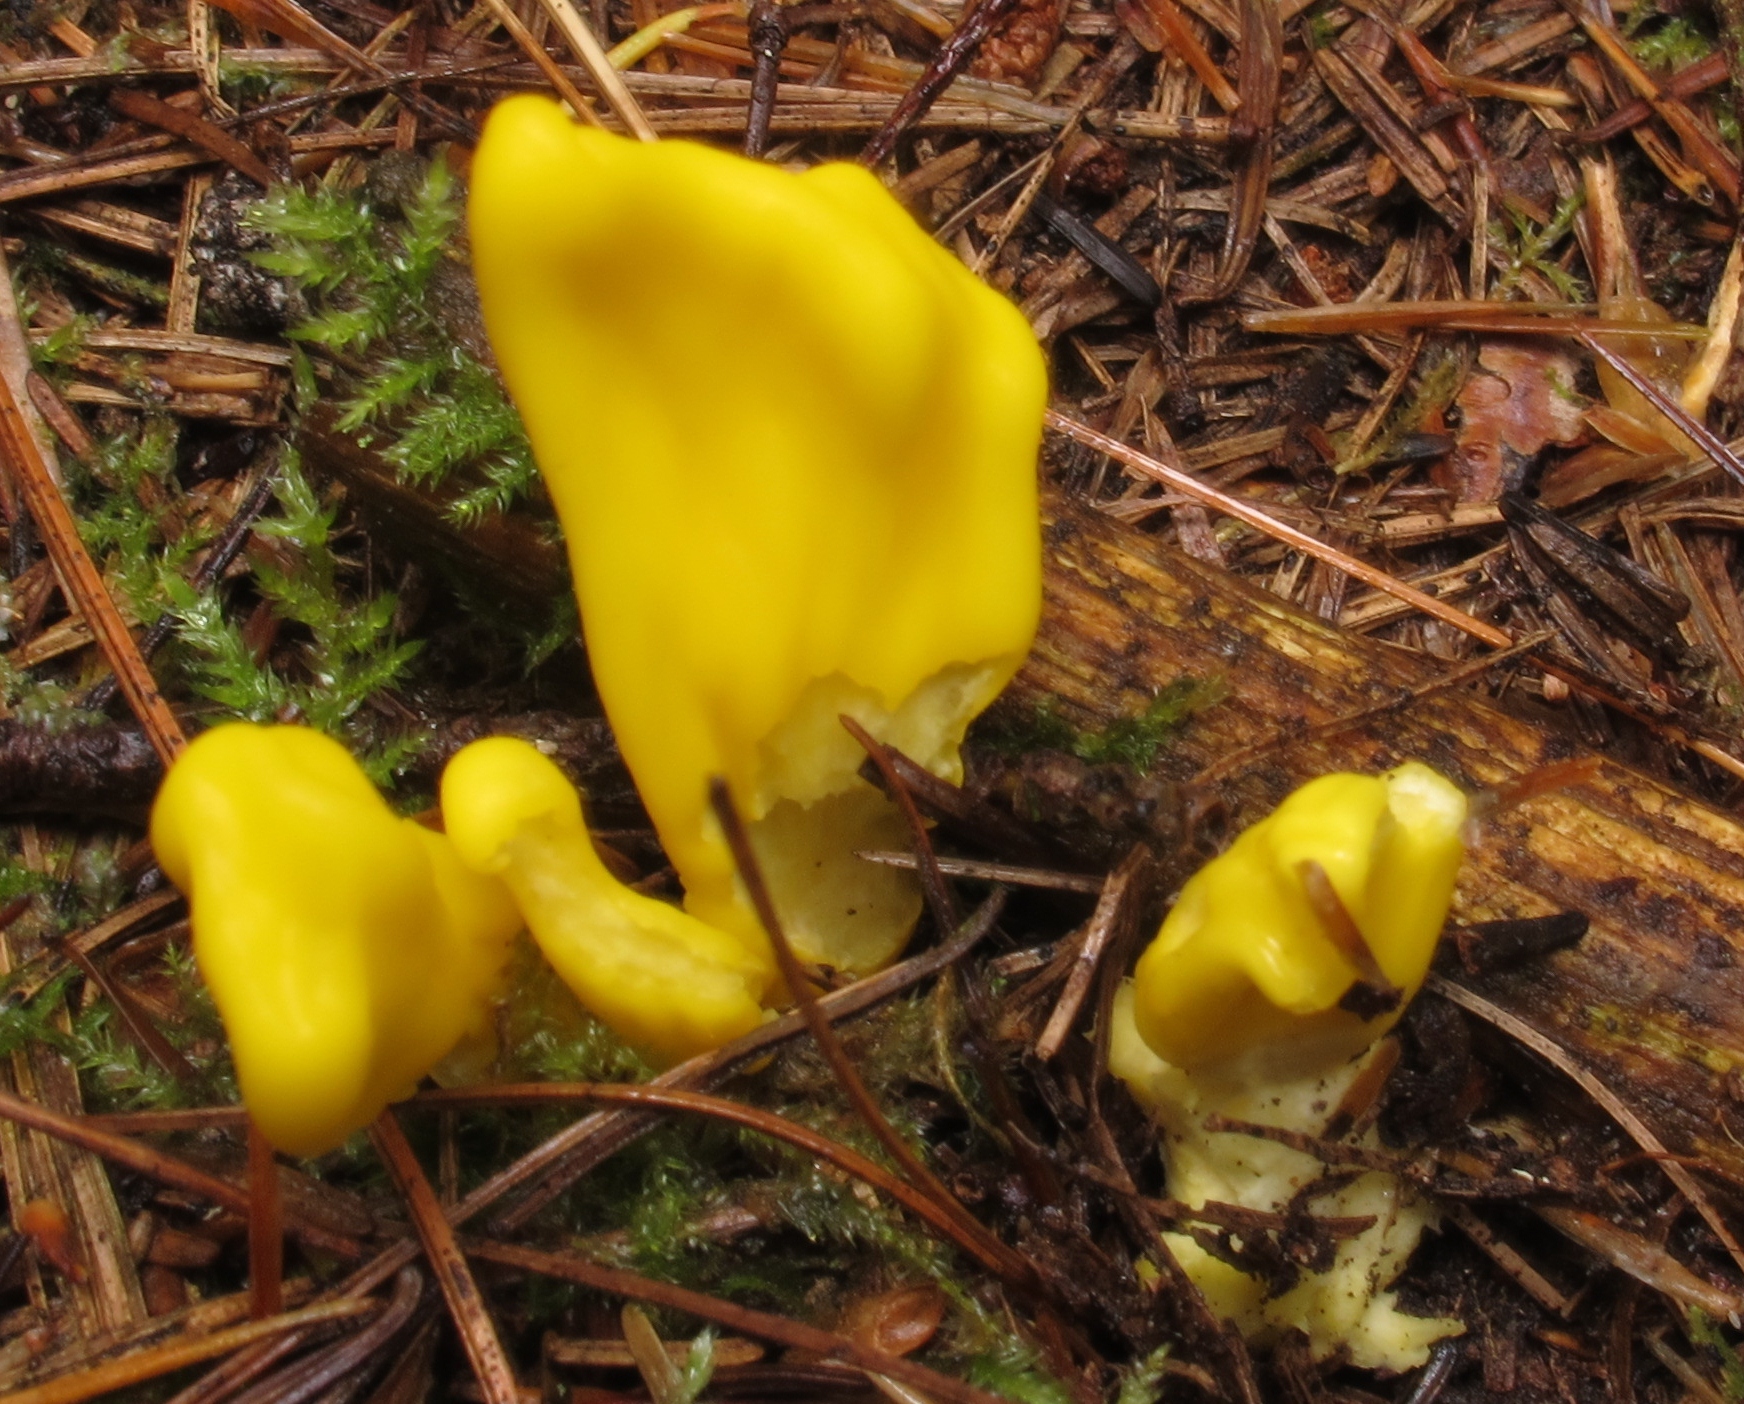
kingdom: Fungi
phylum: Ascomycota
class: Neolectomycetes
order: Neolectales
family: Neolectaceae
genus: Neolecta
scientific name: Neolecta irregularis
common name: Irregular earth tongue
